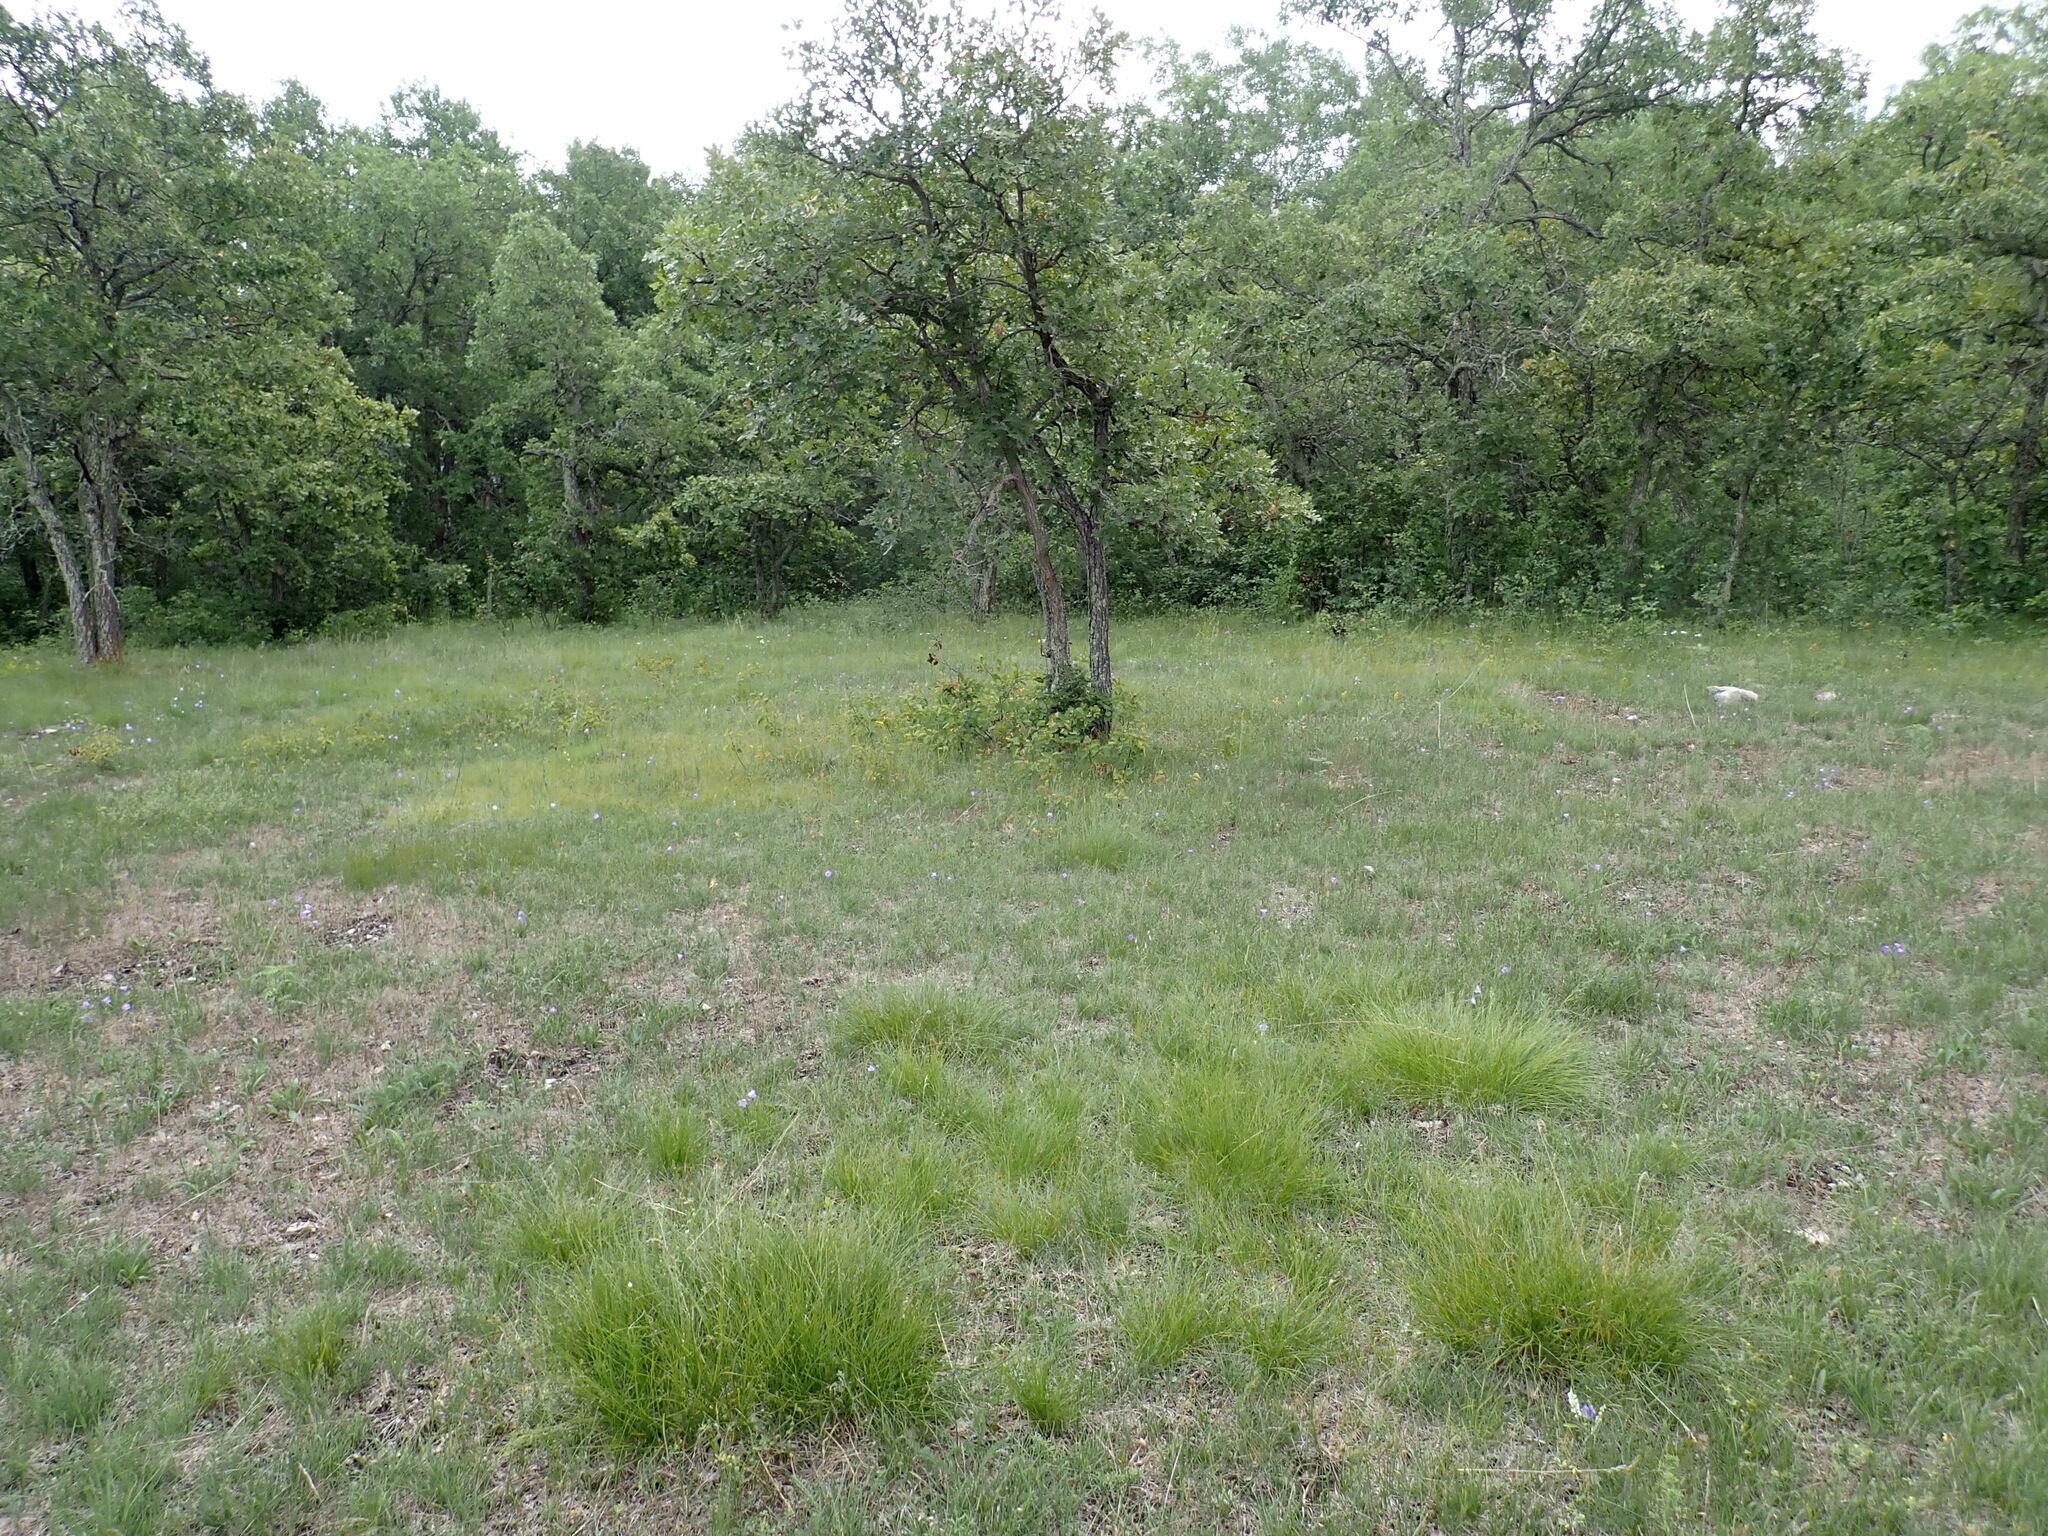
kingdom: Plantae
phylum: Tracheophyta
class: Liliopsida
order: Poales
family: Poaceae
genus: Sporobolus
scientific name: Sporobolus heterolepis
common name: Prairie dropseed
